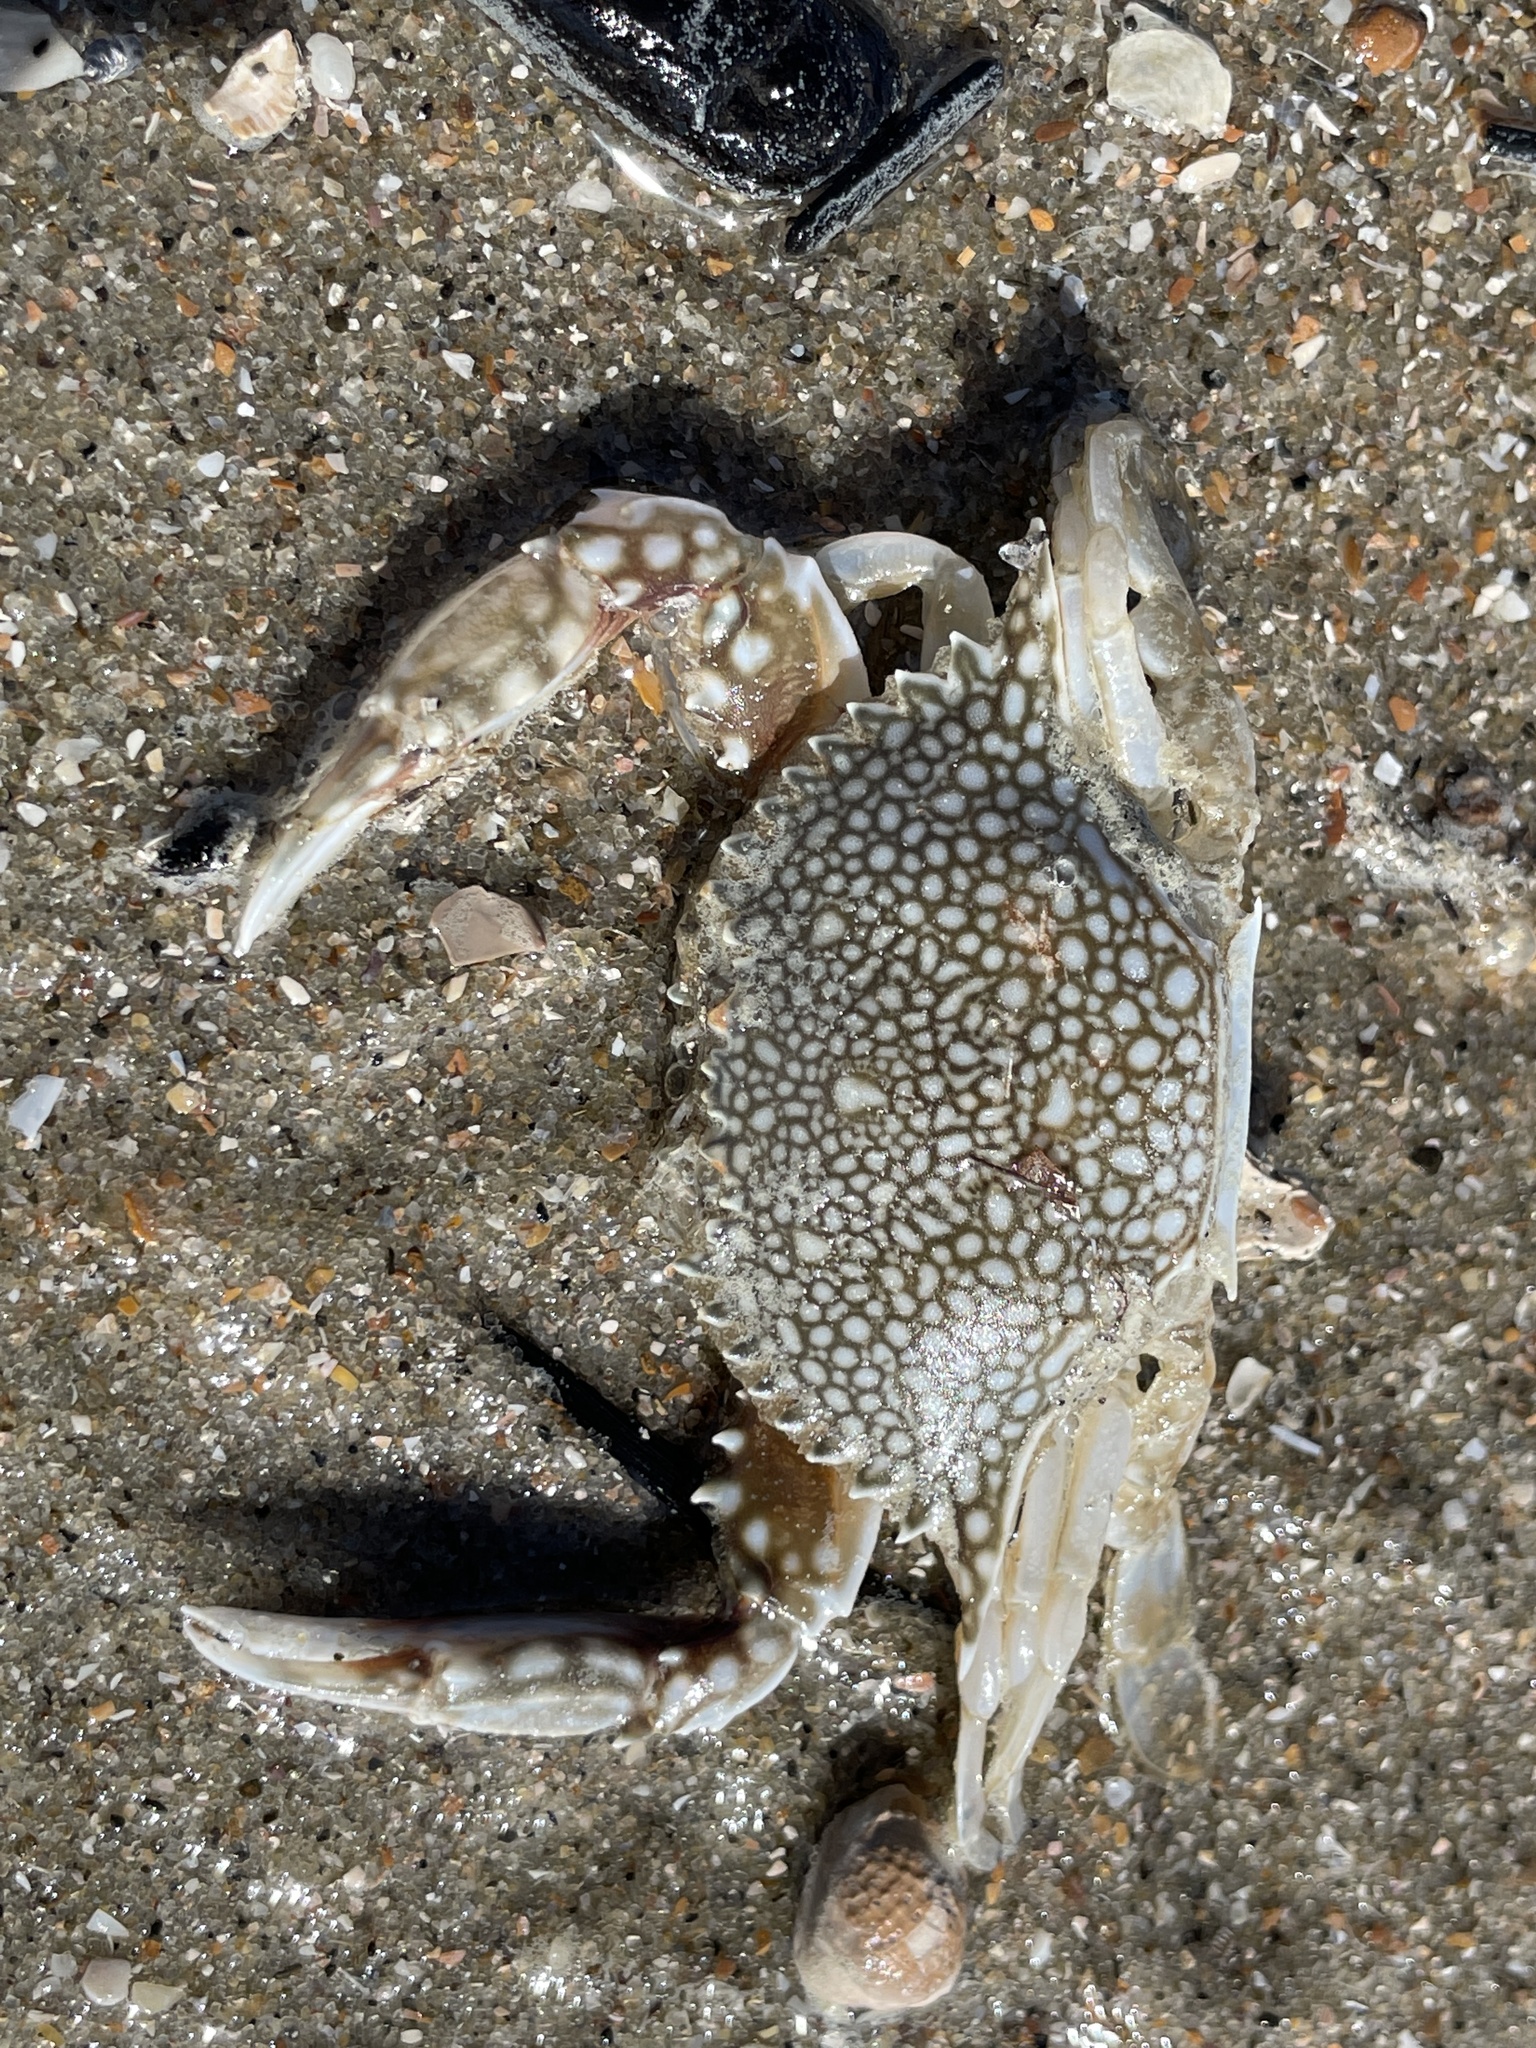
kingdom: Animalia
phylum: Arthropoda
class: Malacostraca
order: Decapoda
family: Portunidae
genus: Arenaeus
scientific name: Arenaeus cribrarius
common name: Speckled crab
